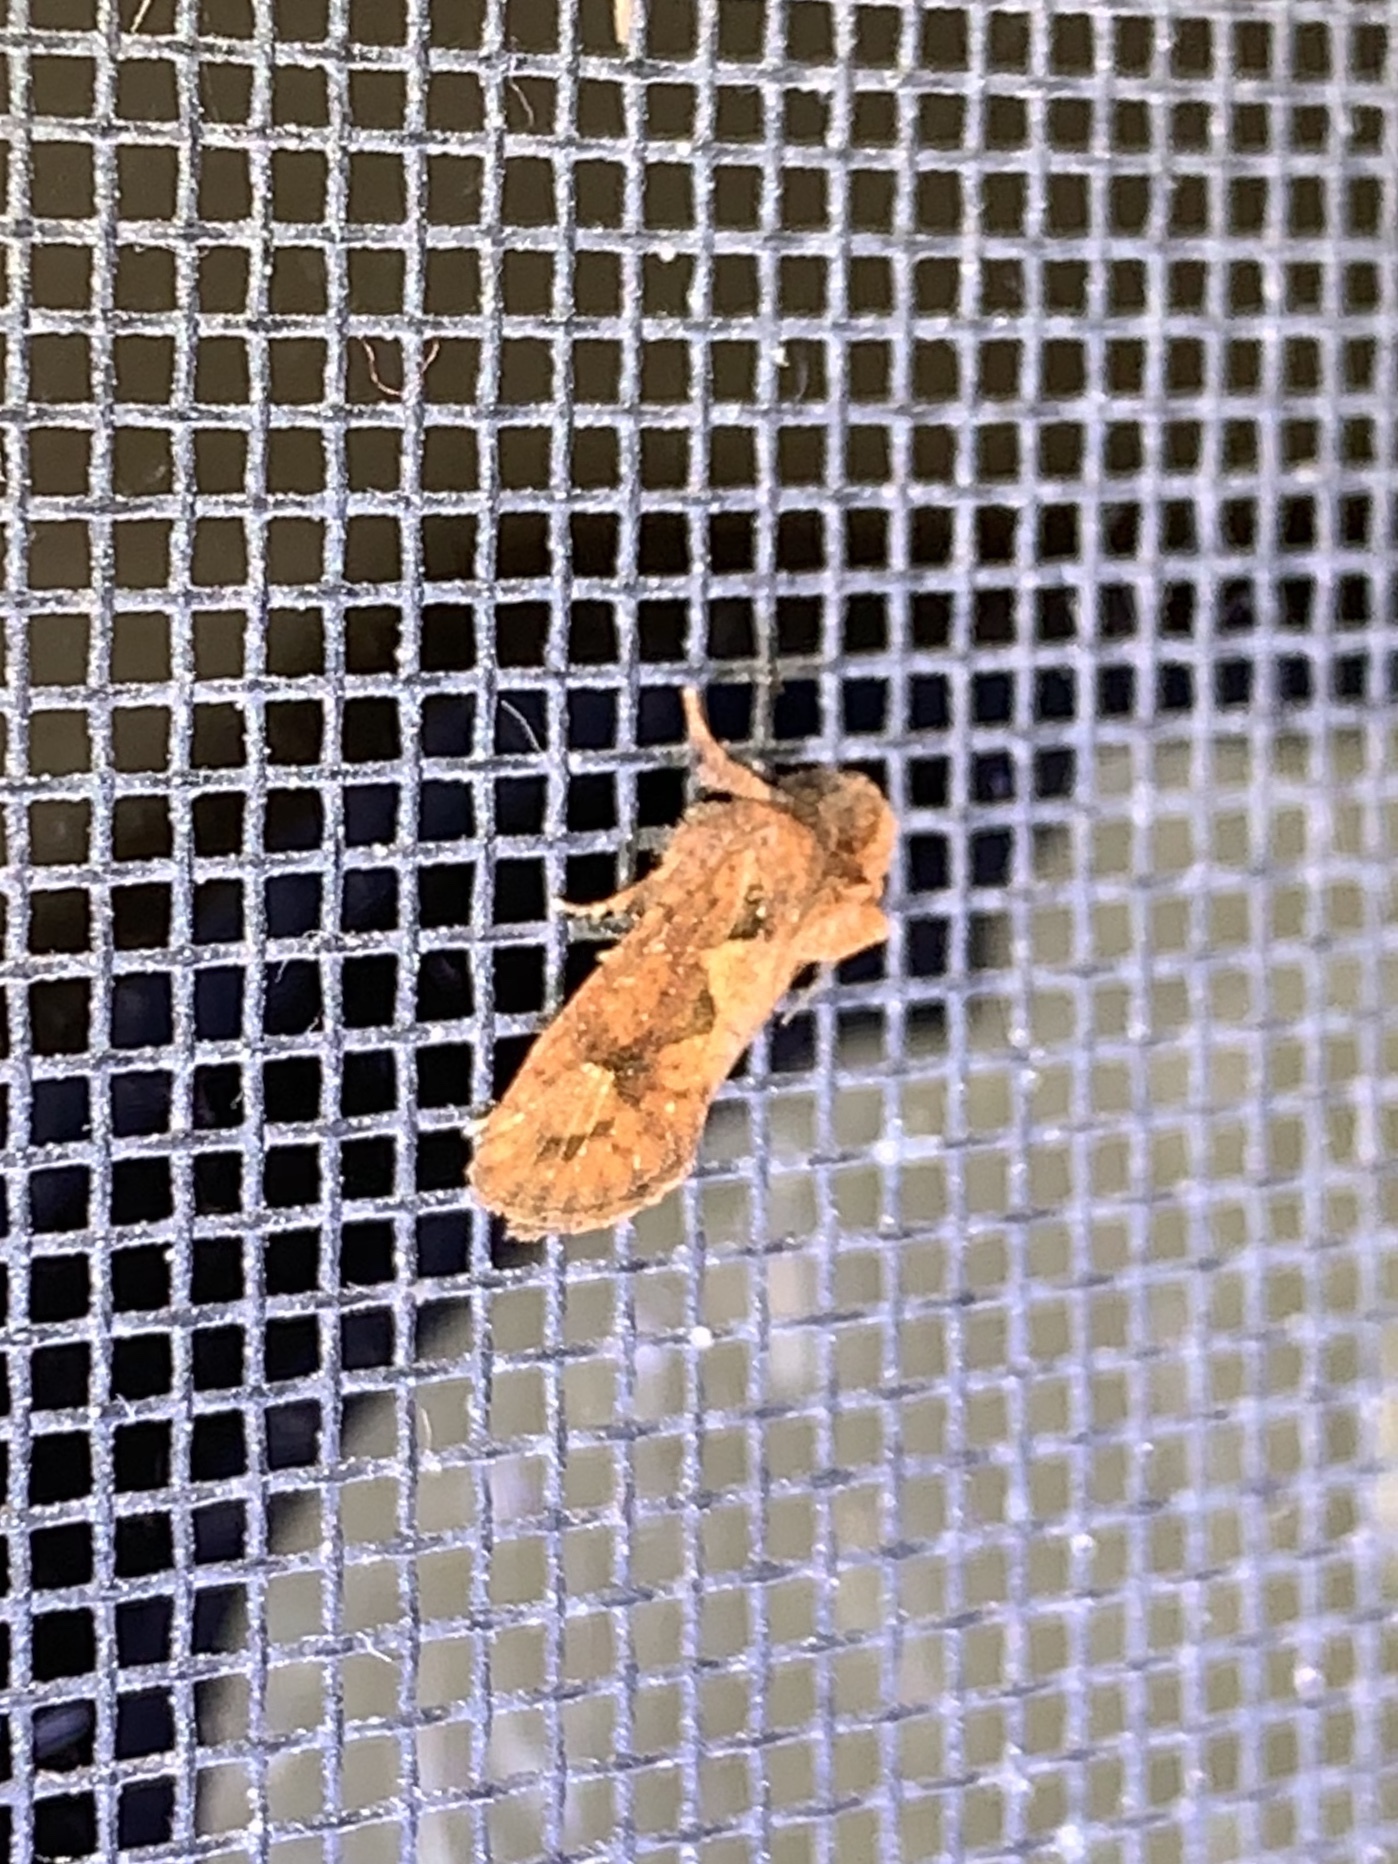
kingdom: Animalia
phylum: Arthropoda
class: Insecta
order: Lepidoptera
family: Tineidae
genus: Acrolophus
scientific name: Acrolophus walsinghami
